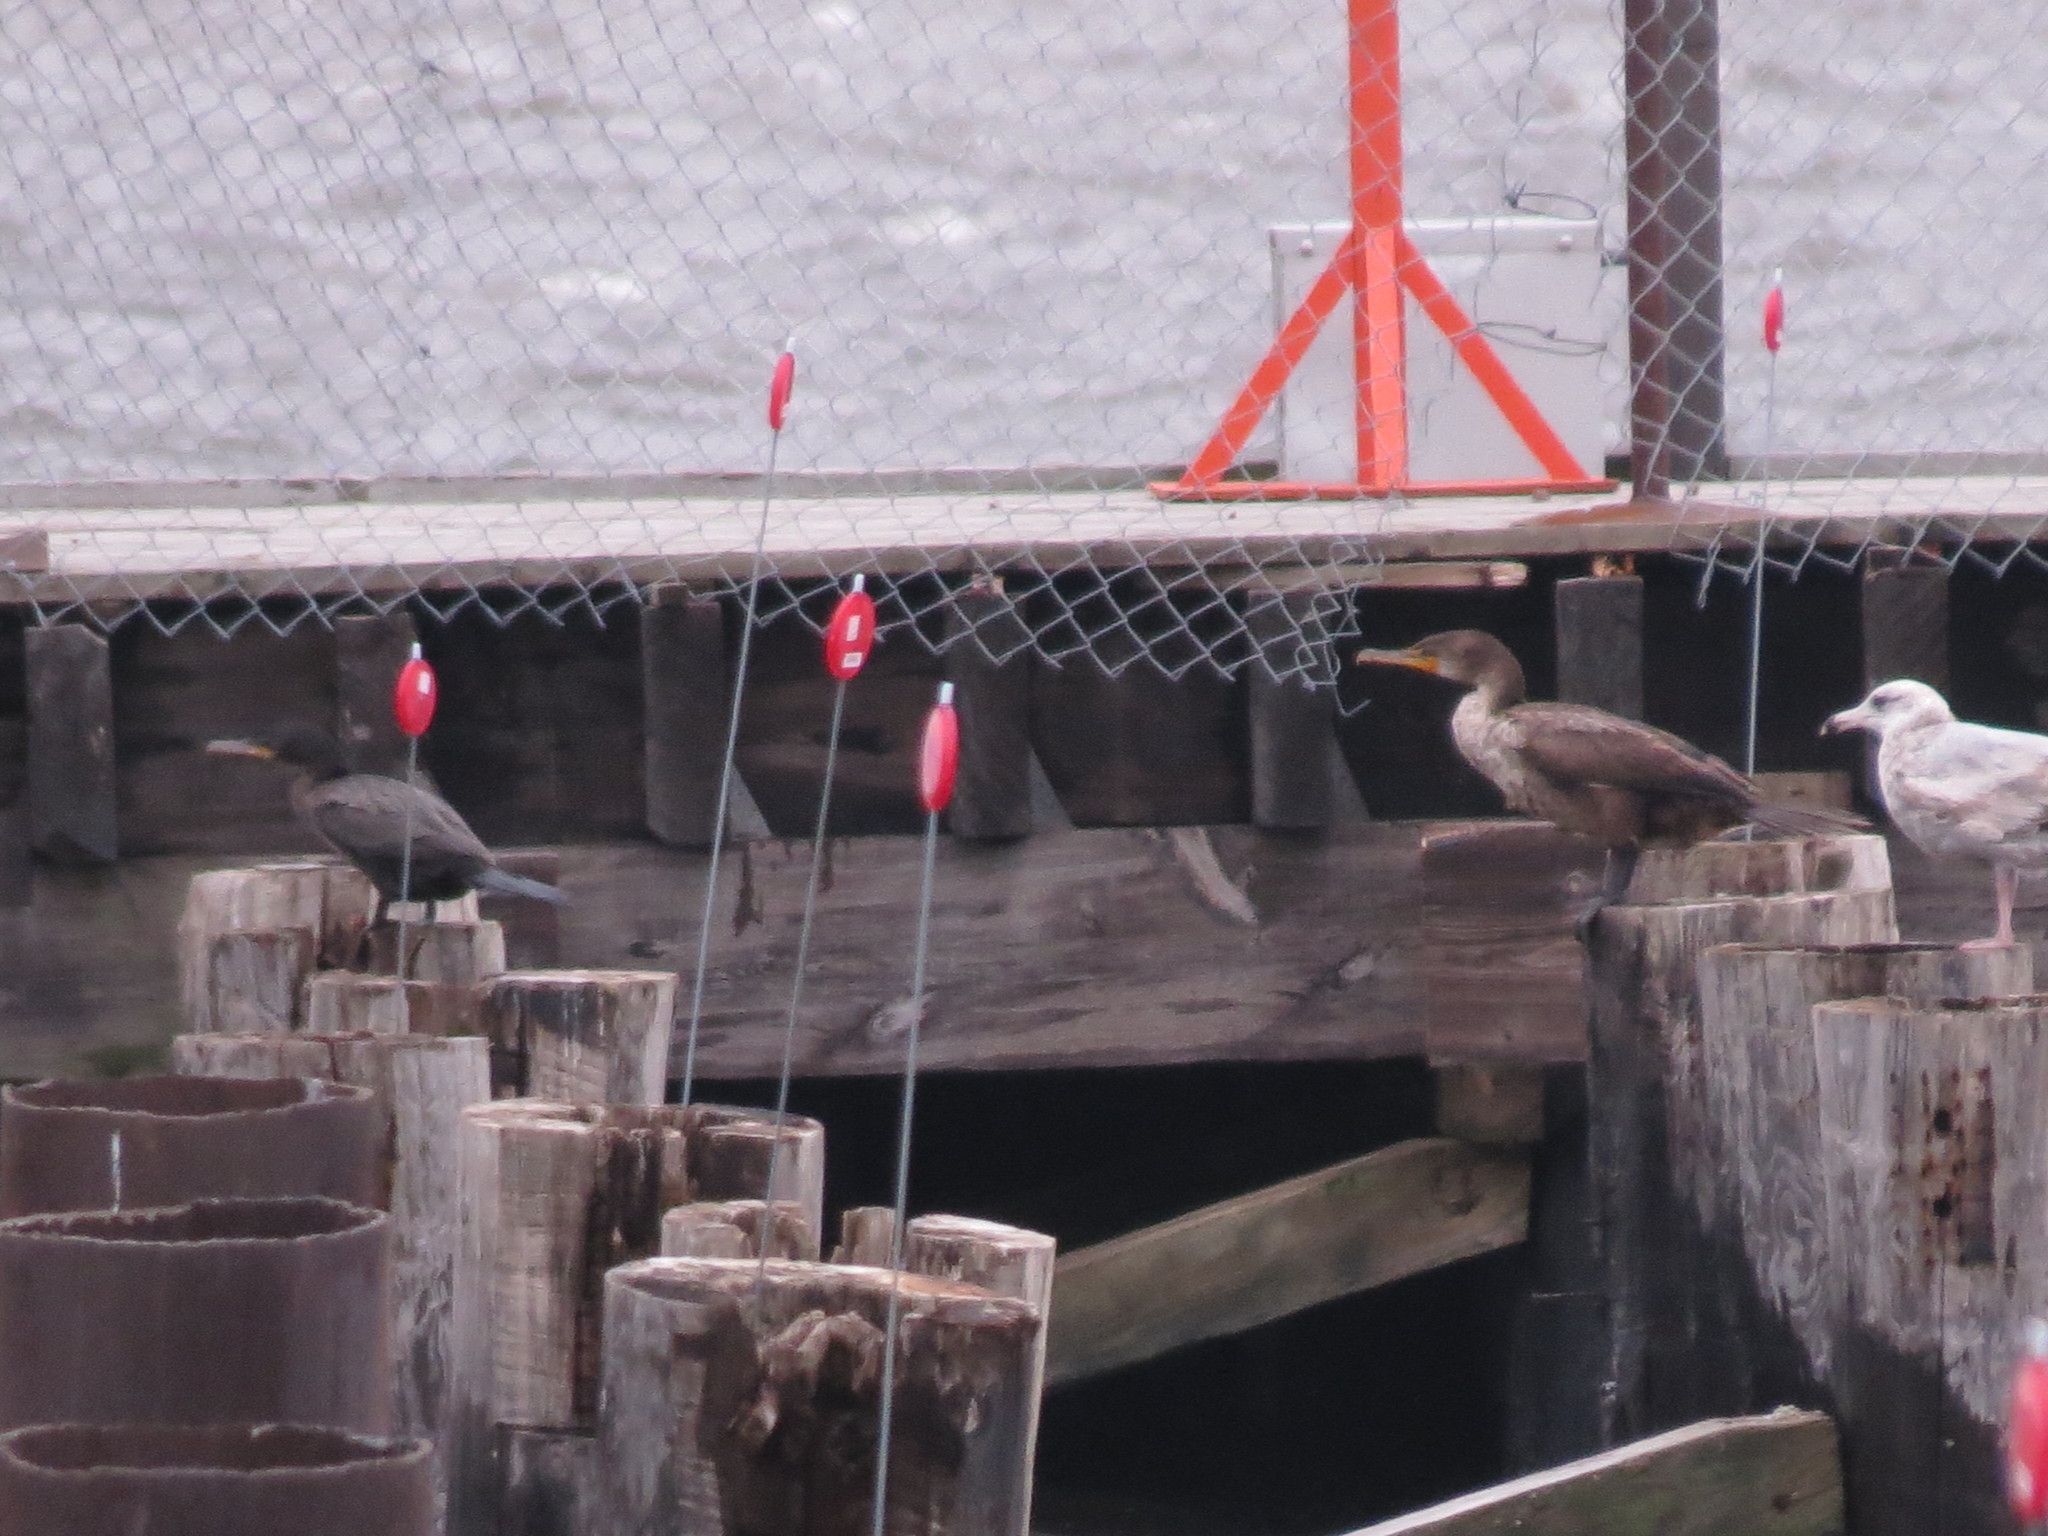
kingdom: Animalia
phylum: Chordata
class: Aves
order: Suliformes
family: Phalacrocoracidae
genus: Phalacrocorax
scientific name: Phalacrocorax brasilianus
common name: Neotropic cormorant
